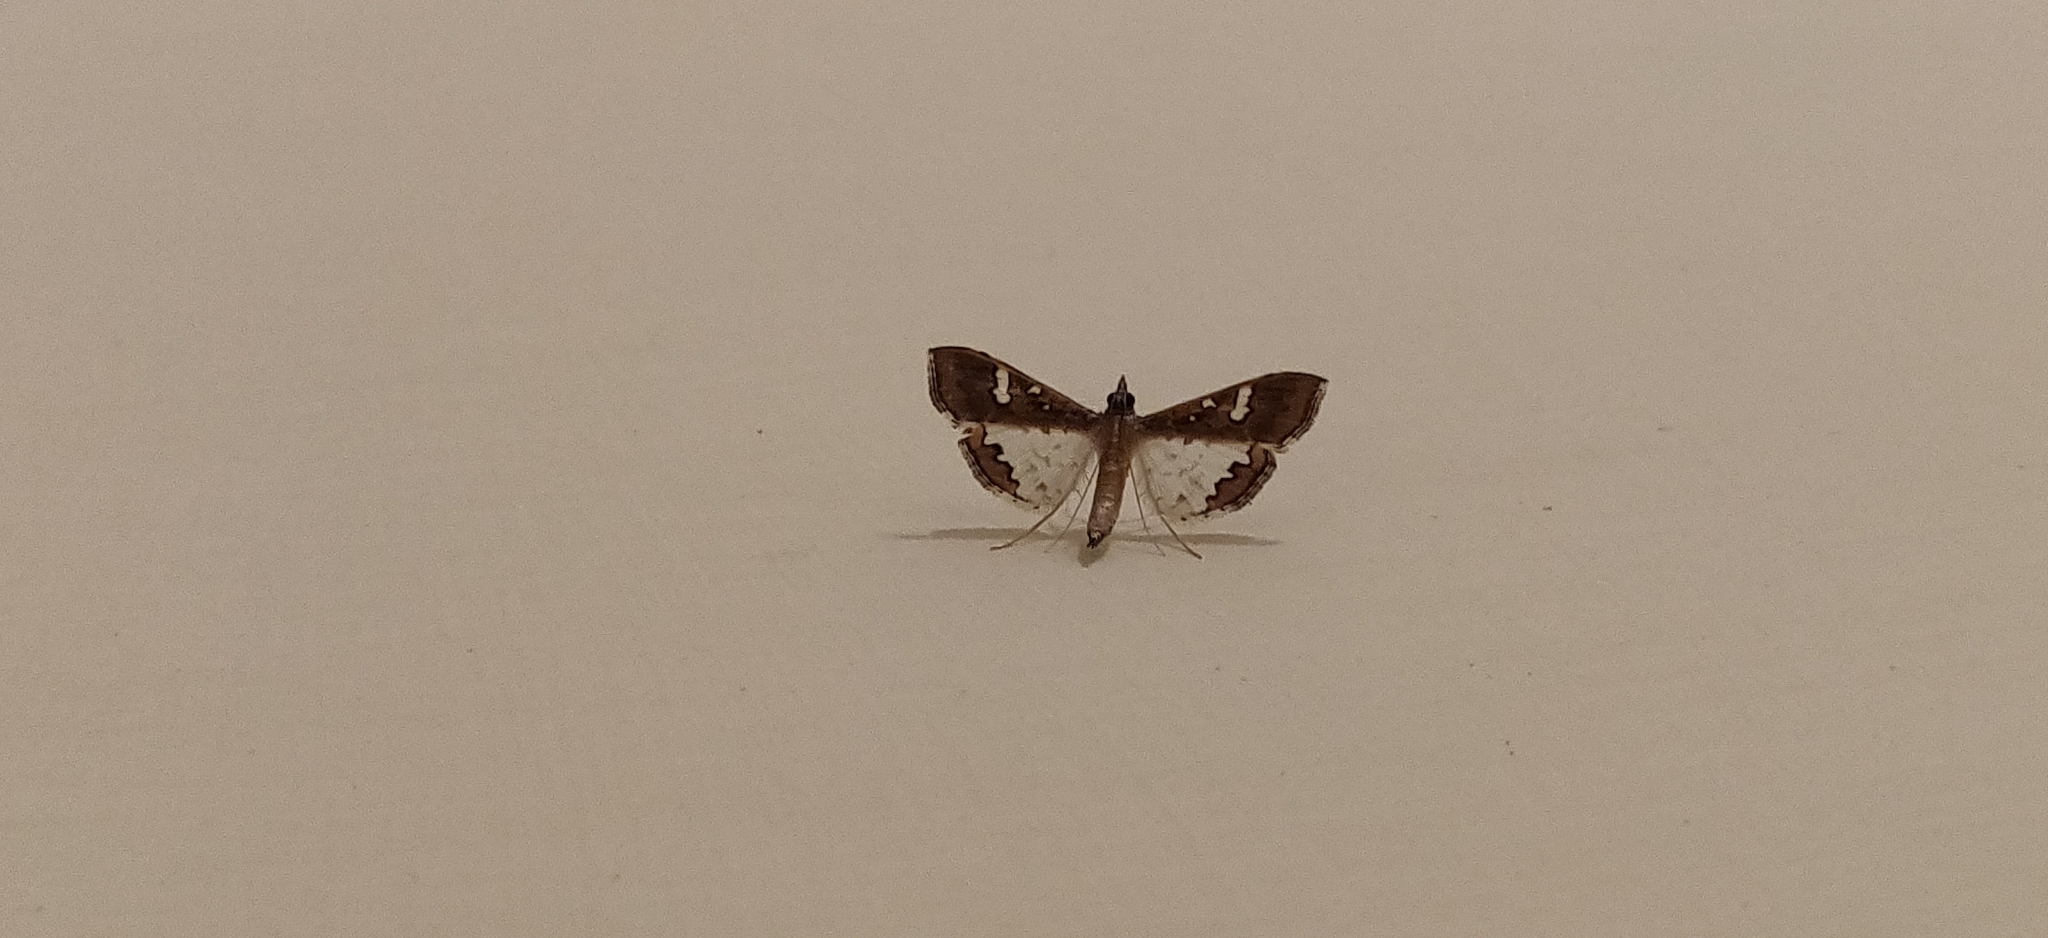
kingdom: Animalia
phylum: Arthropoda
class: Insecta
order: Lepidoptera
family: Crambidae
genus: Maruca
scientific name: Maruca vitrata
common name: Maruca pod borer
